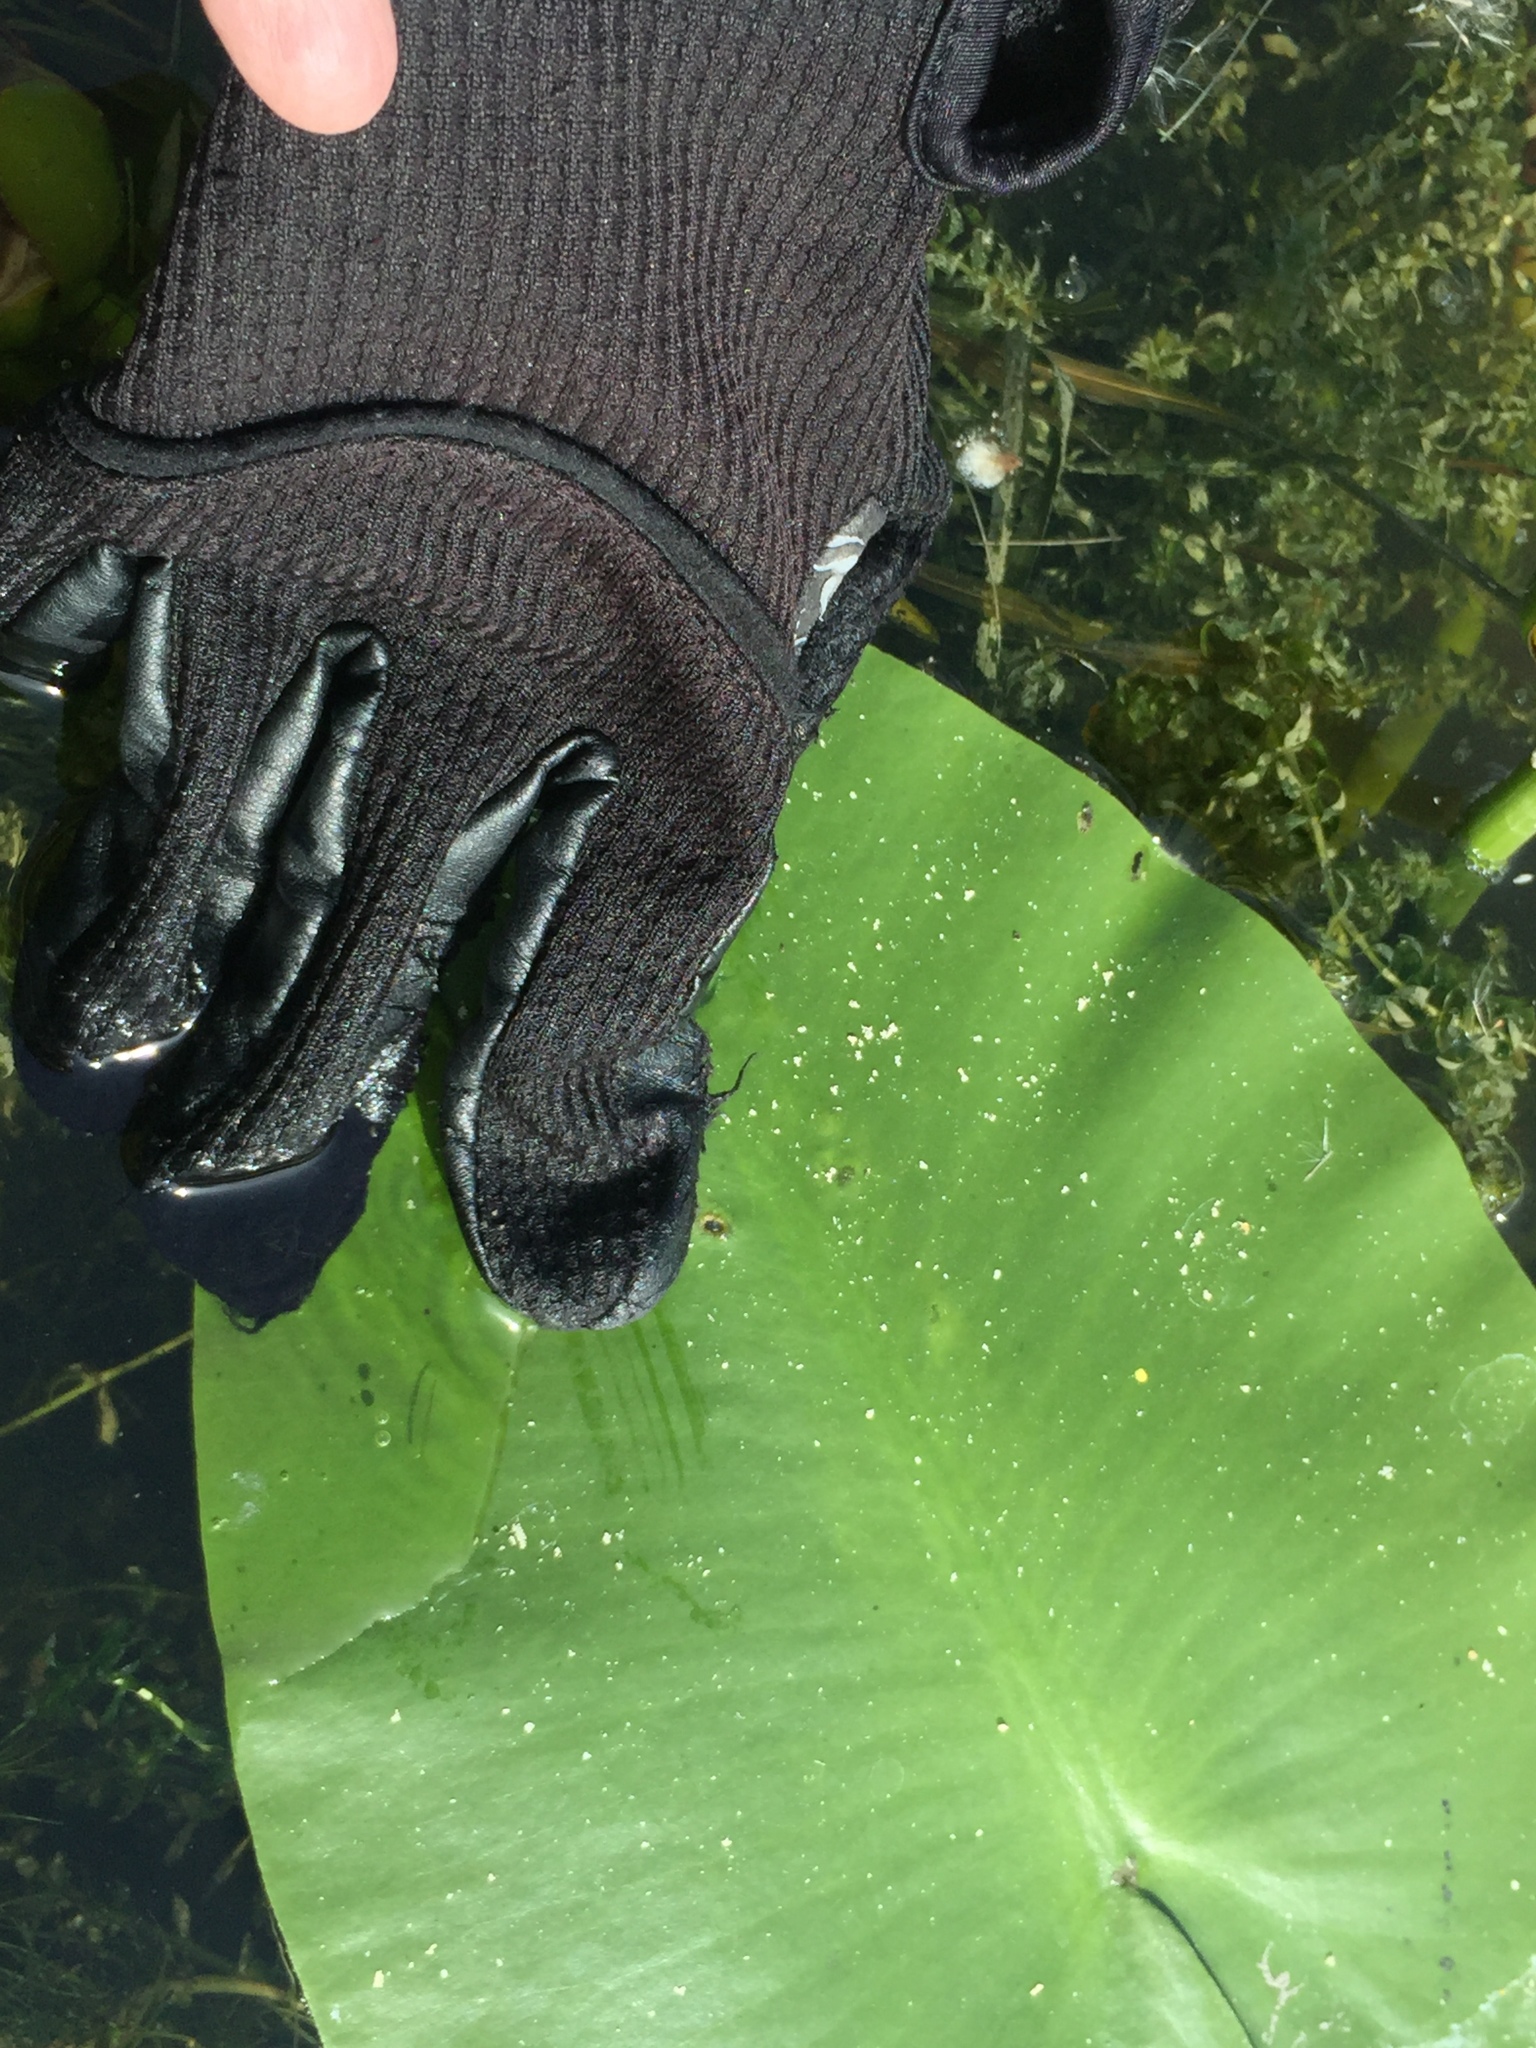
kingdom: Plantae
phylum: Tracheophyta
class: Magnoliopsida
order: Nymphaeales
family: Nymphaeaceae
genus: Nuphar
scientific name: Nuphar variegata
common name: Beaver-root
